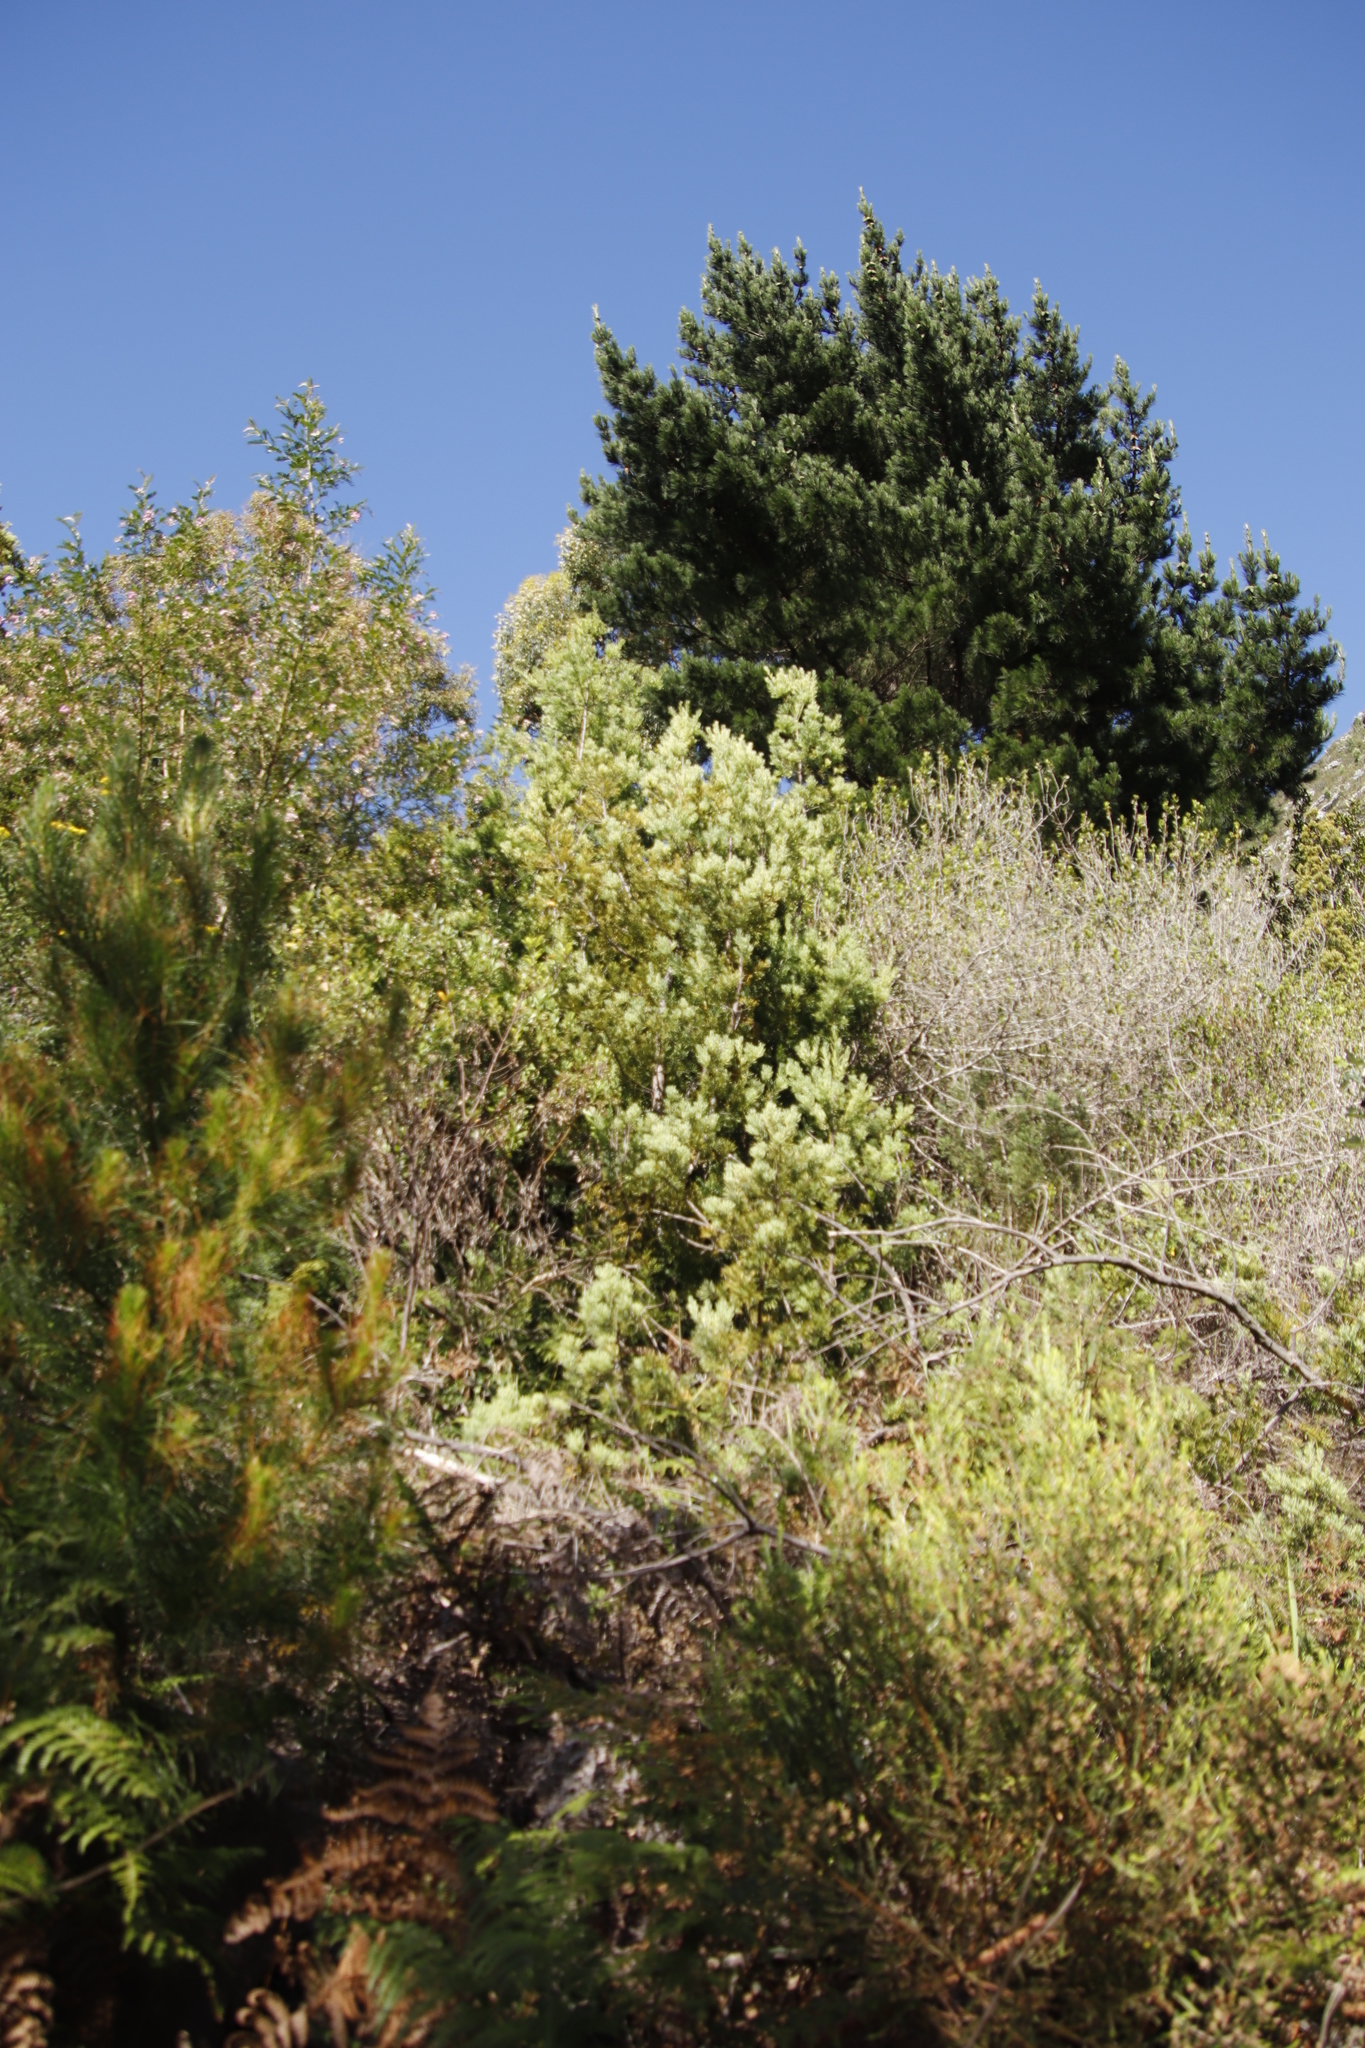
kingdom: Plantae
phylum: Tracheophyta
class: Pinopsida
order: Pinales
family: Podocarpaceae
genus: Afrocarpus
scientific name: Afrocarpus falcatus
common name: Bastard yellowwood
